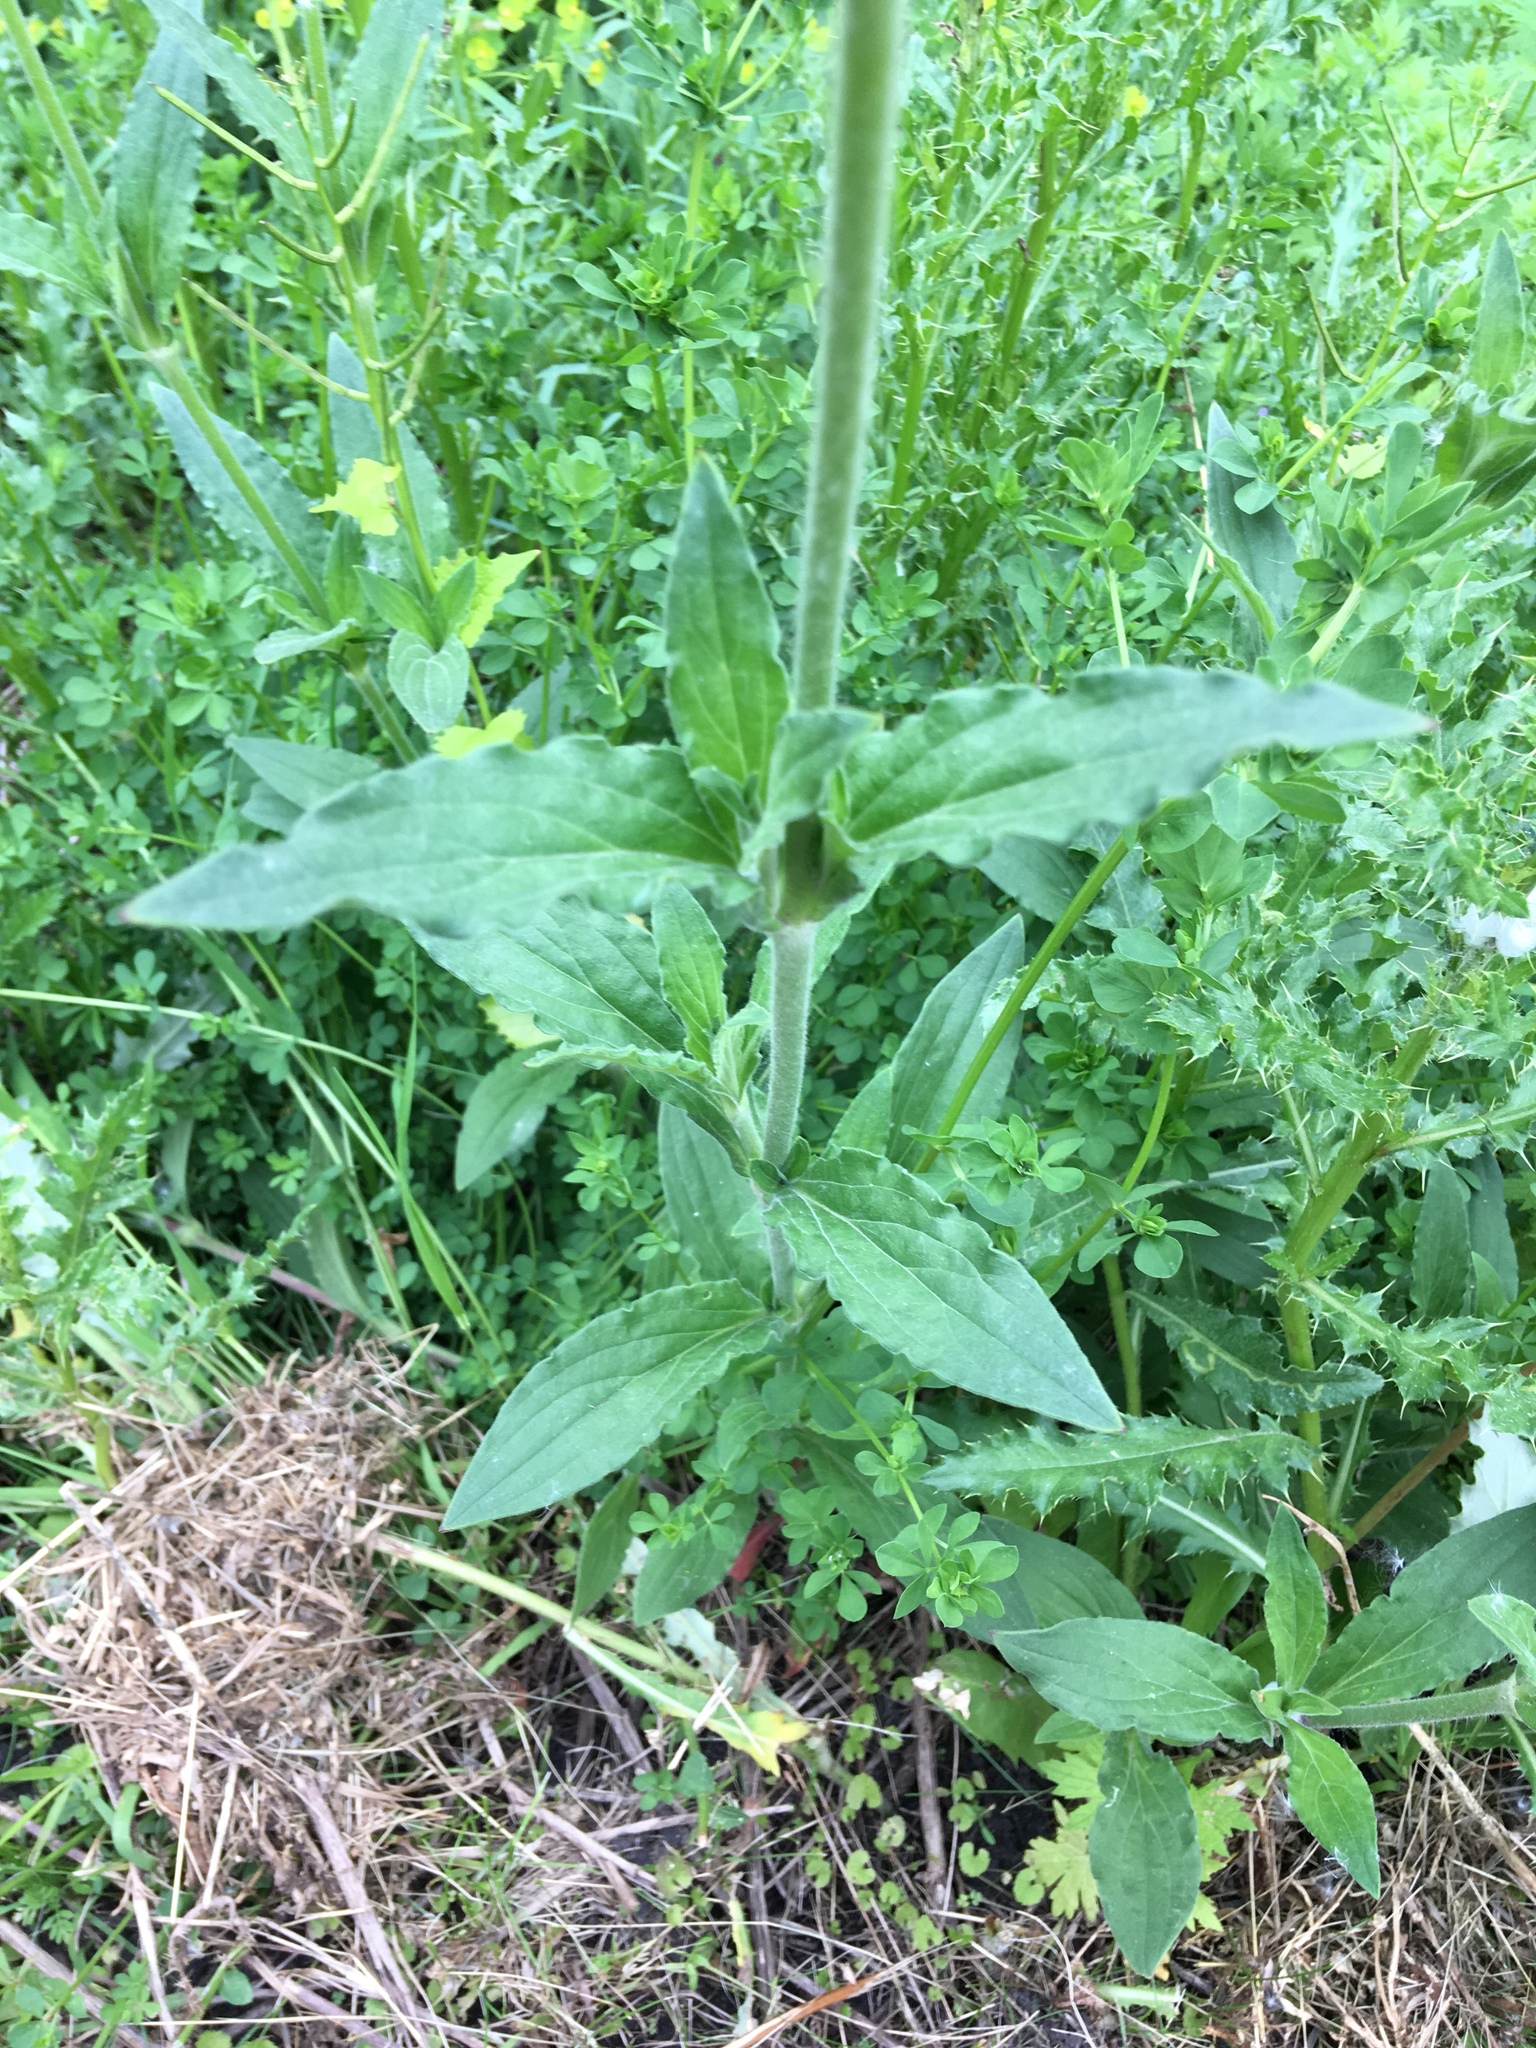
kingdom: Plantae
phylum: Tracheophyta
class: Magnoliopsida
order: Caryophyllales
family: Caryophyllaceae
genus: Silene
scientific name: Silene latifolia
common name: White campion
